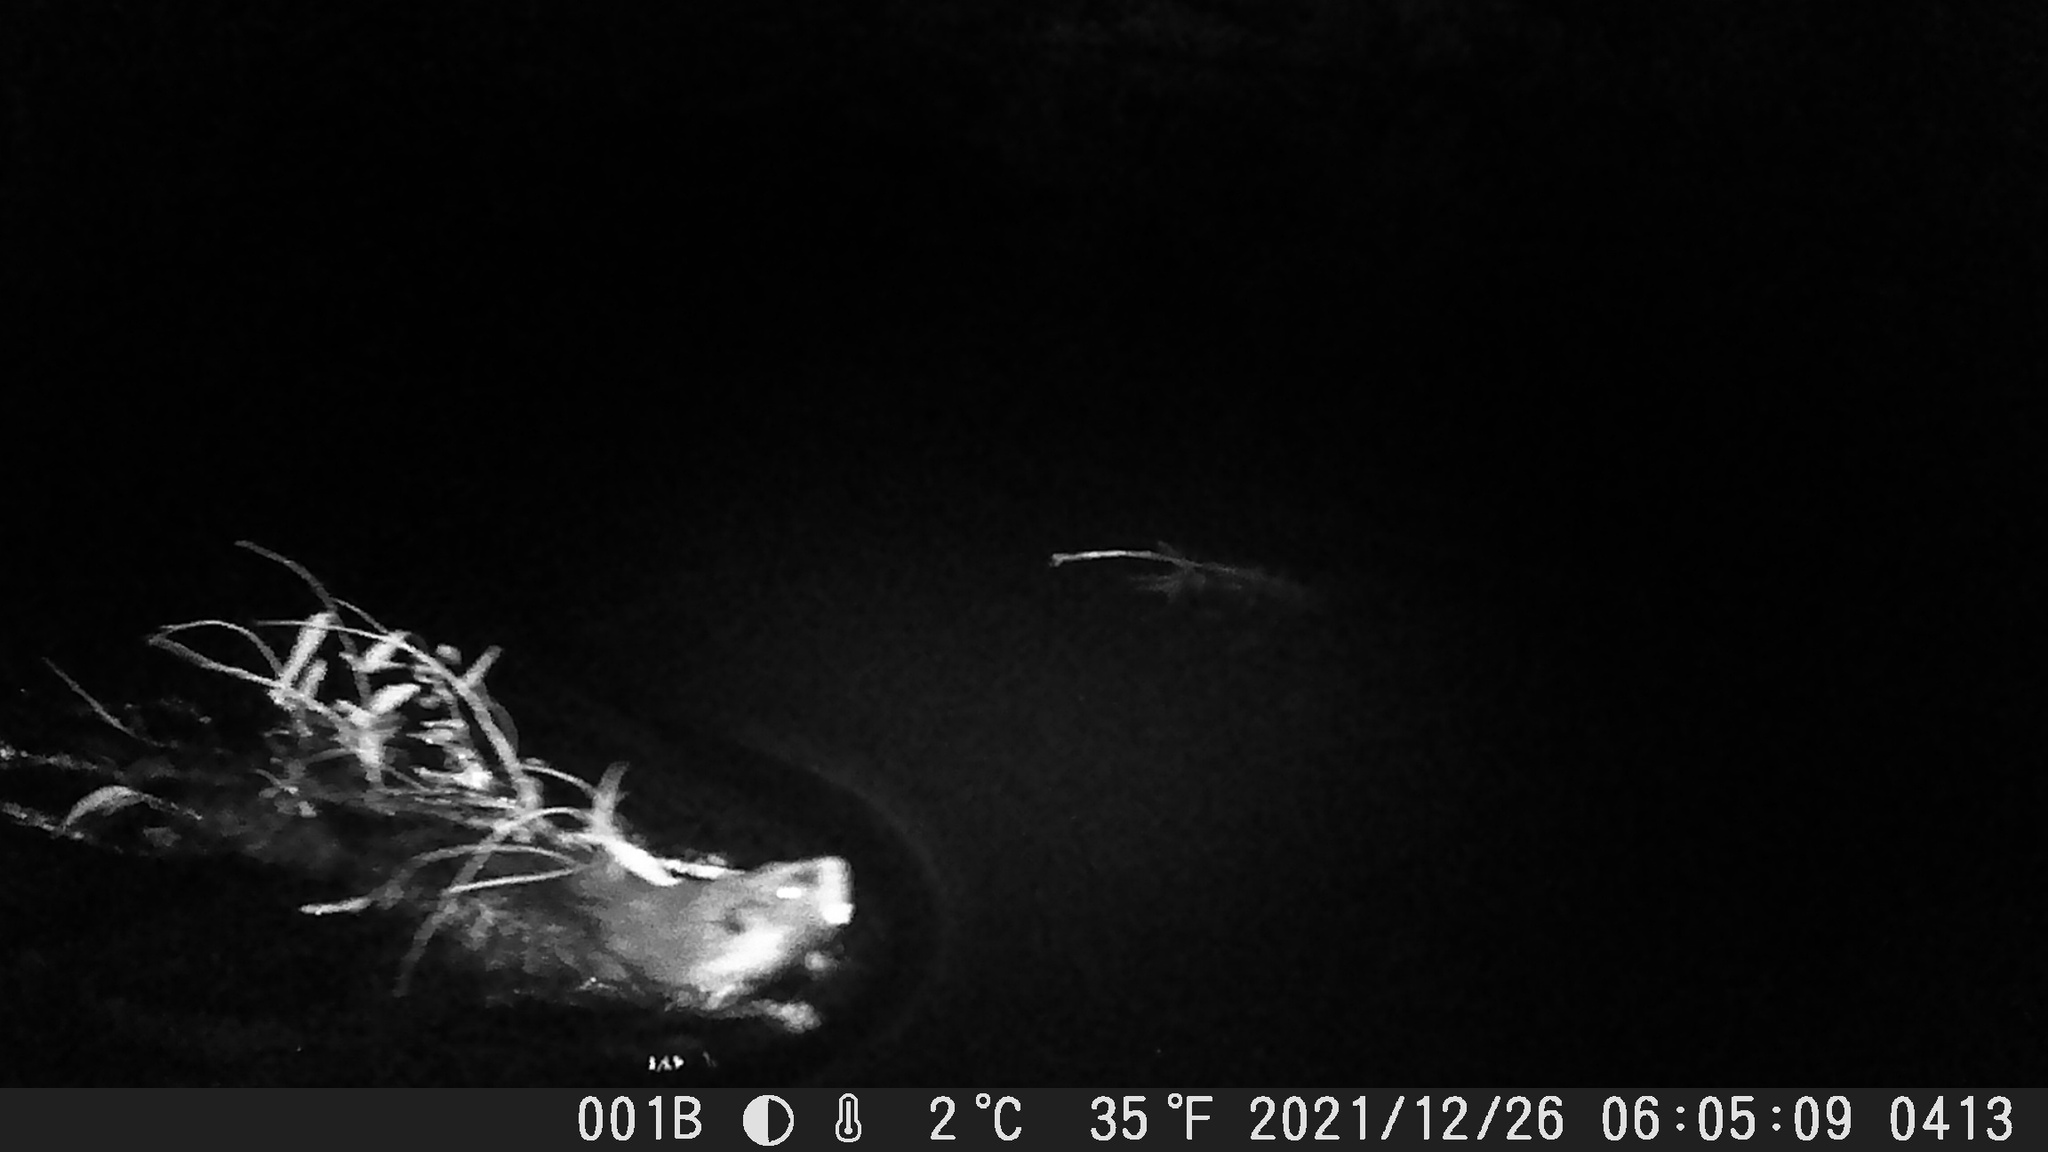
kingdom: Animalia
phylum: Chordata
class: Mammalia
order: Rodentia
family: Castoridae
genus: Castor
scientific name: Castor canadensis
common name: American beaver
